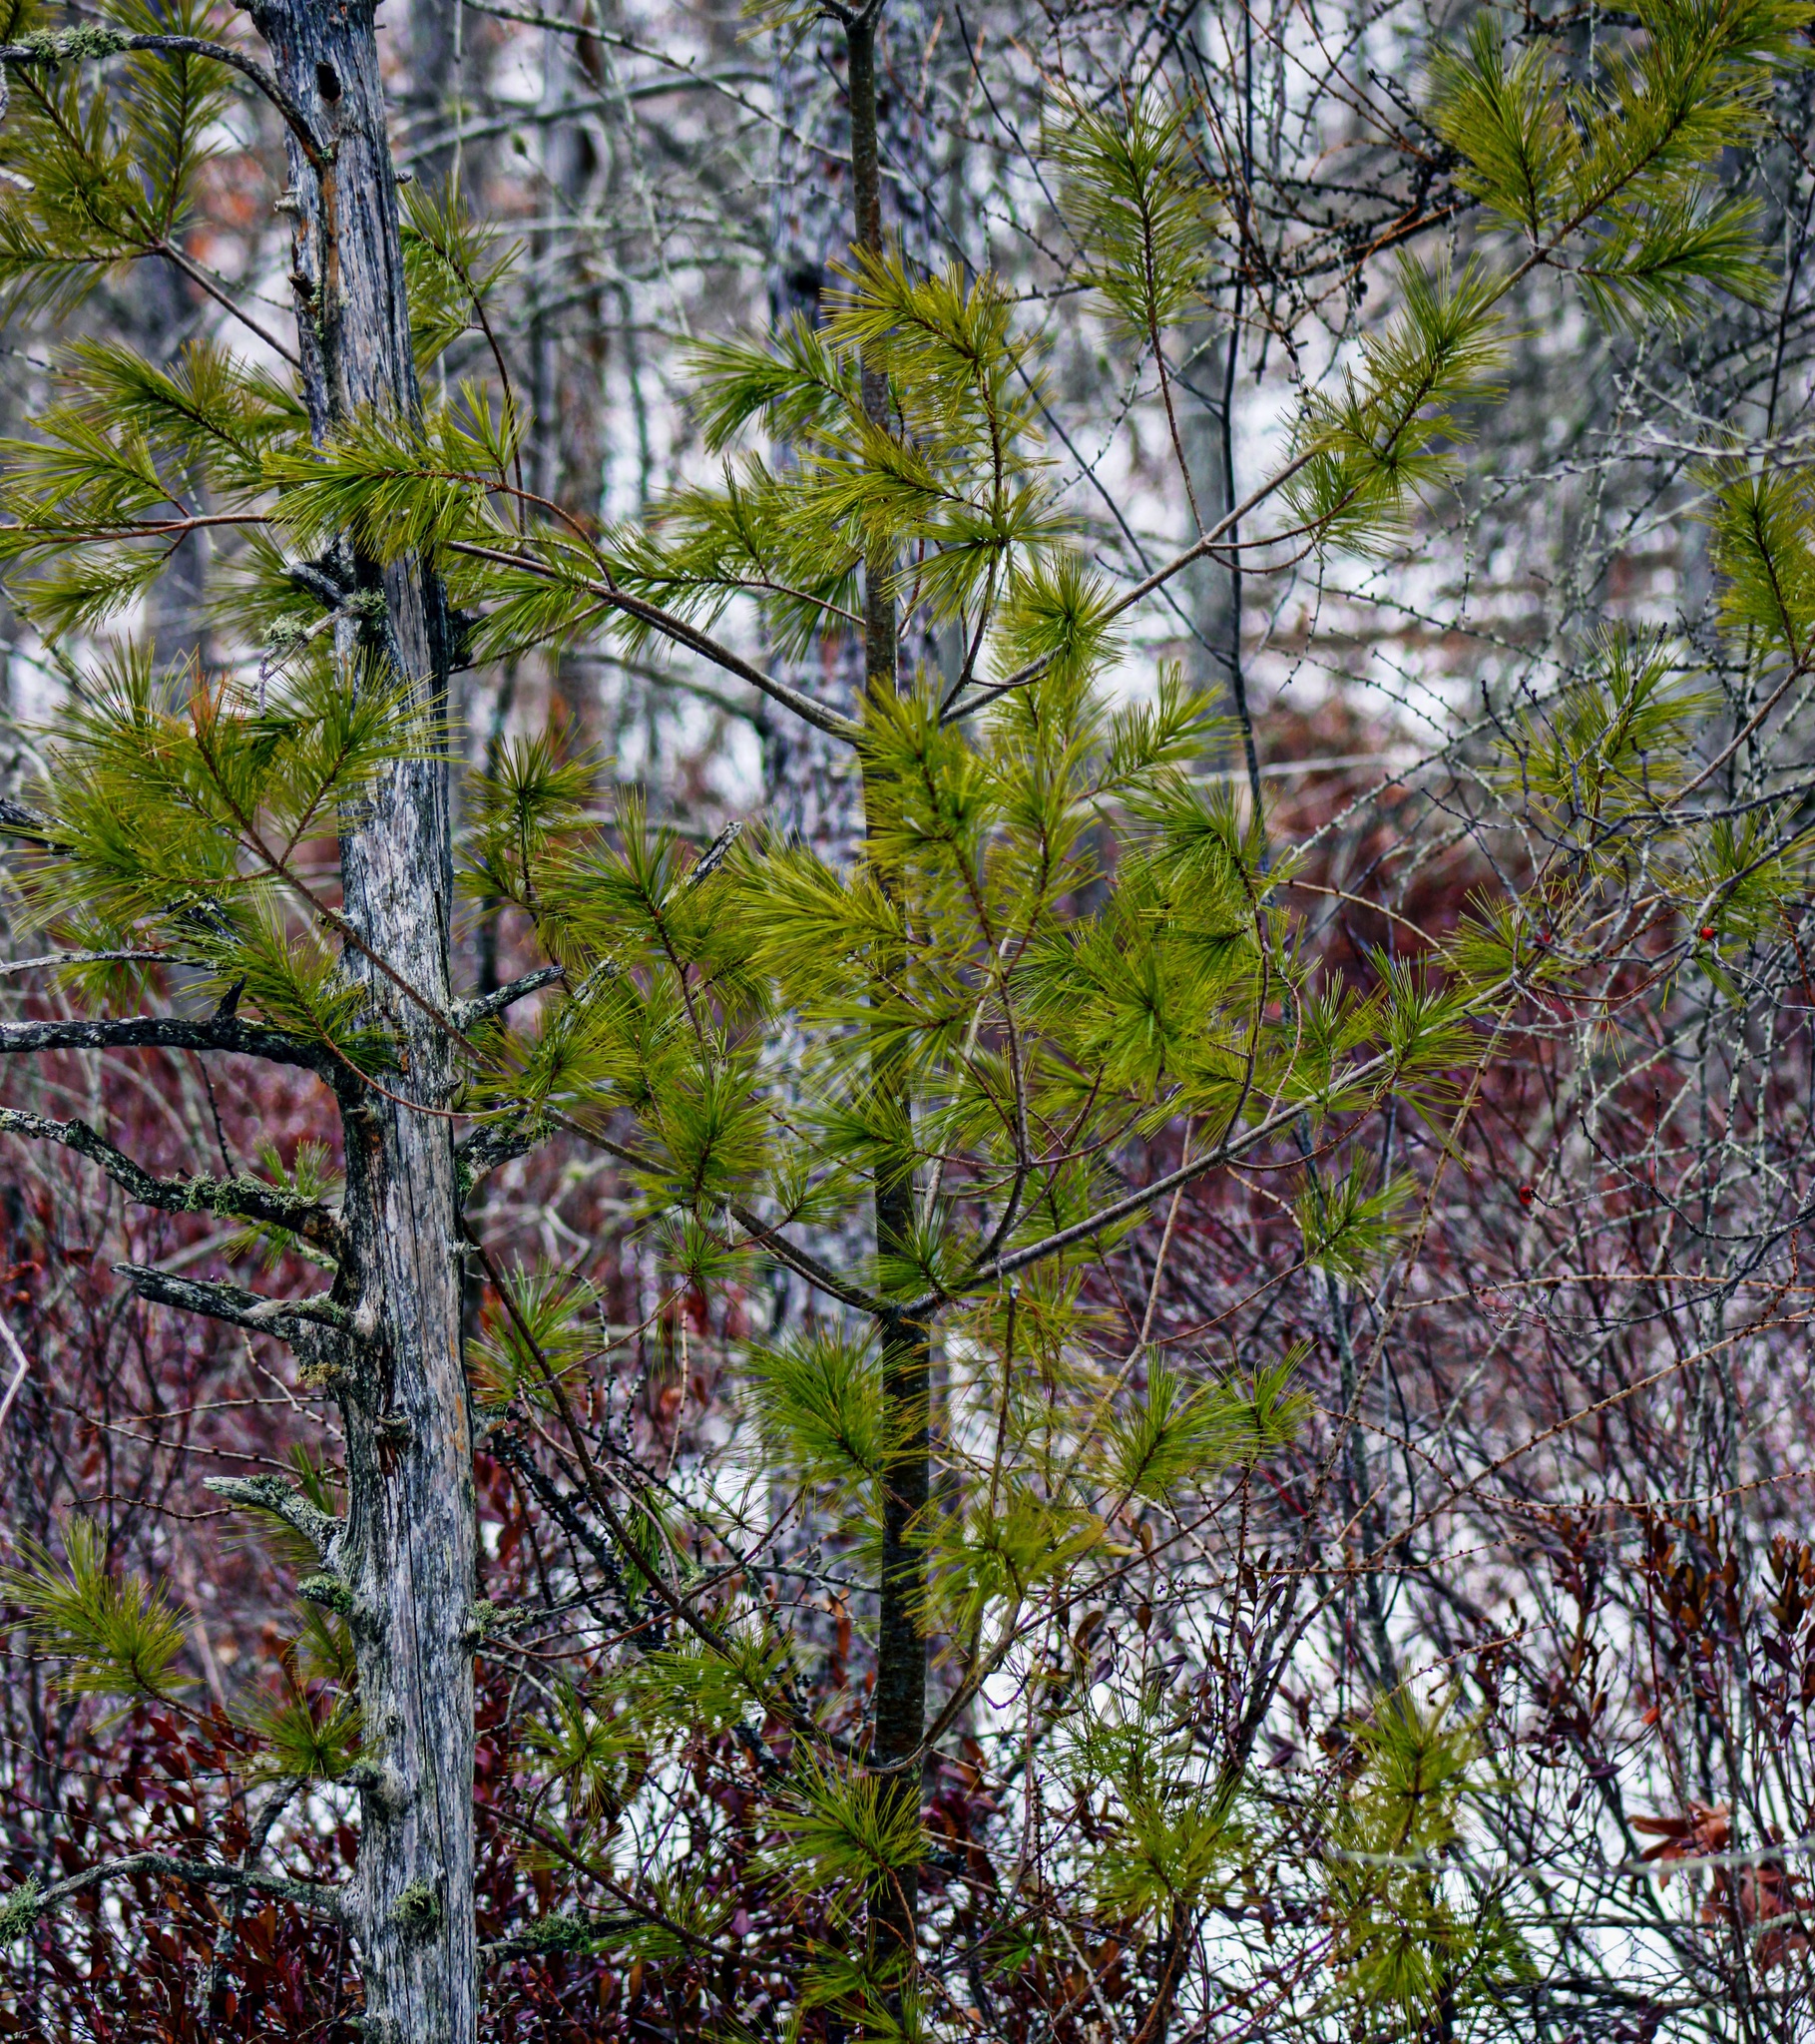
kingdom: Plantae
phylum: Tracheophyta
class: Pinopsida
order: Pinales
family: Pinaceae
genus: Pinus
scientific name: Pinus strobus
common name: Weymouth pine
